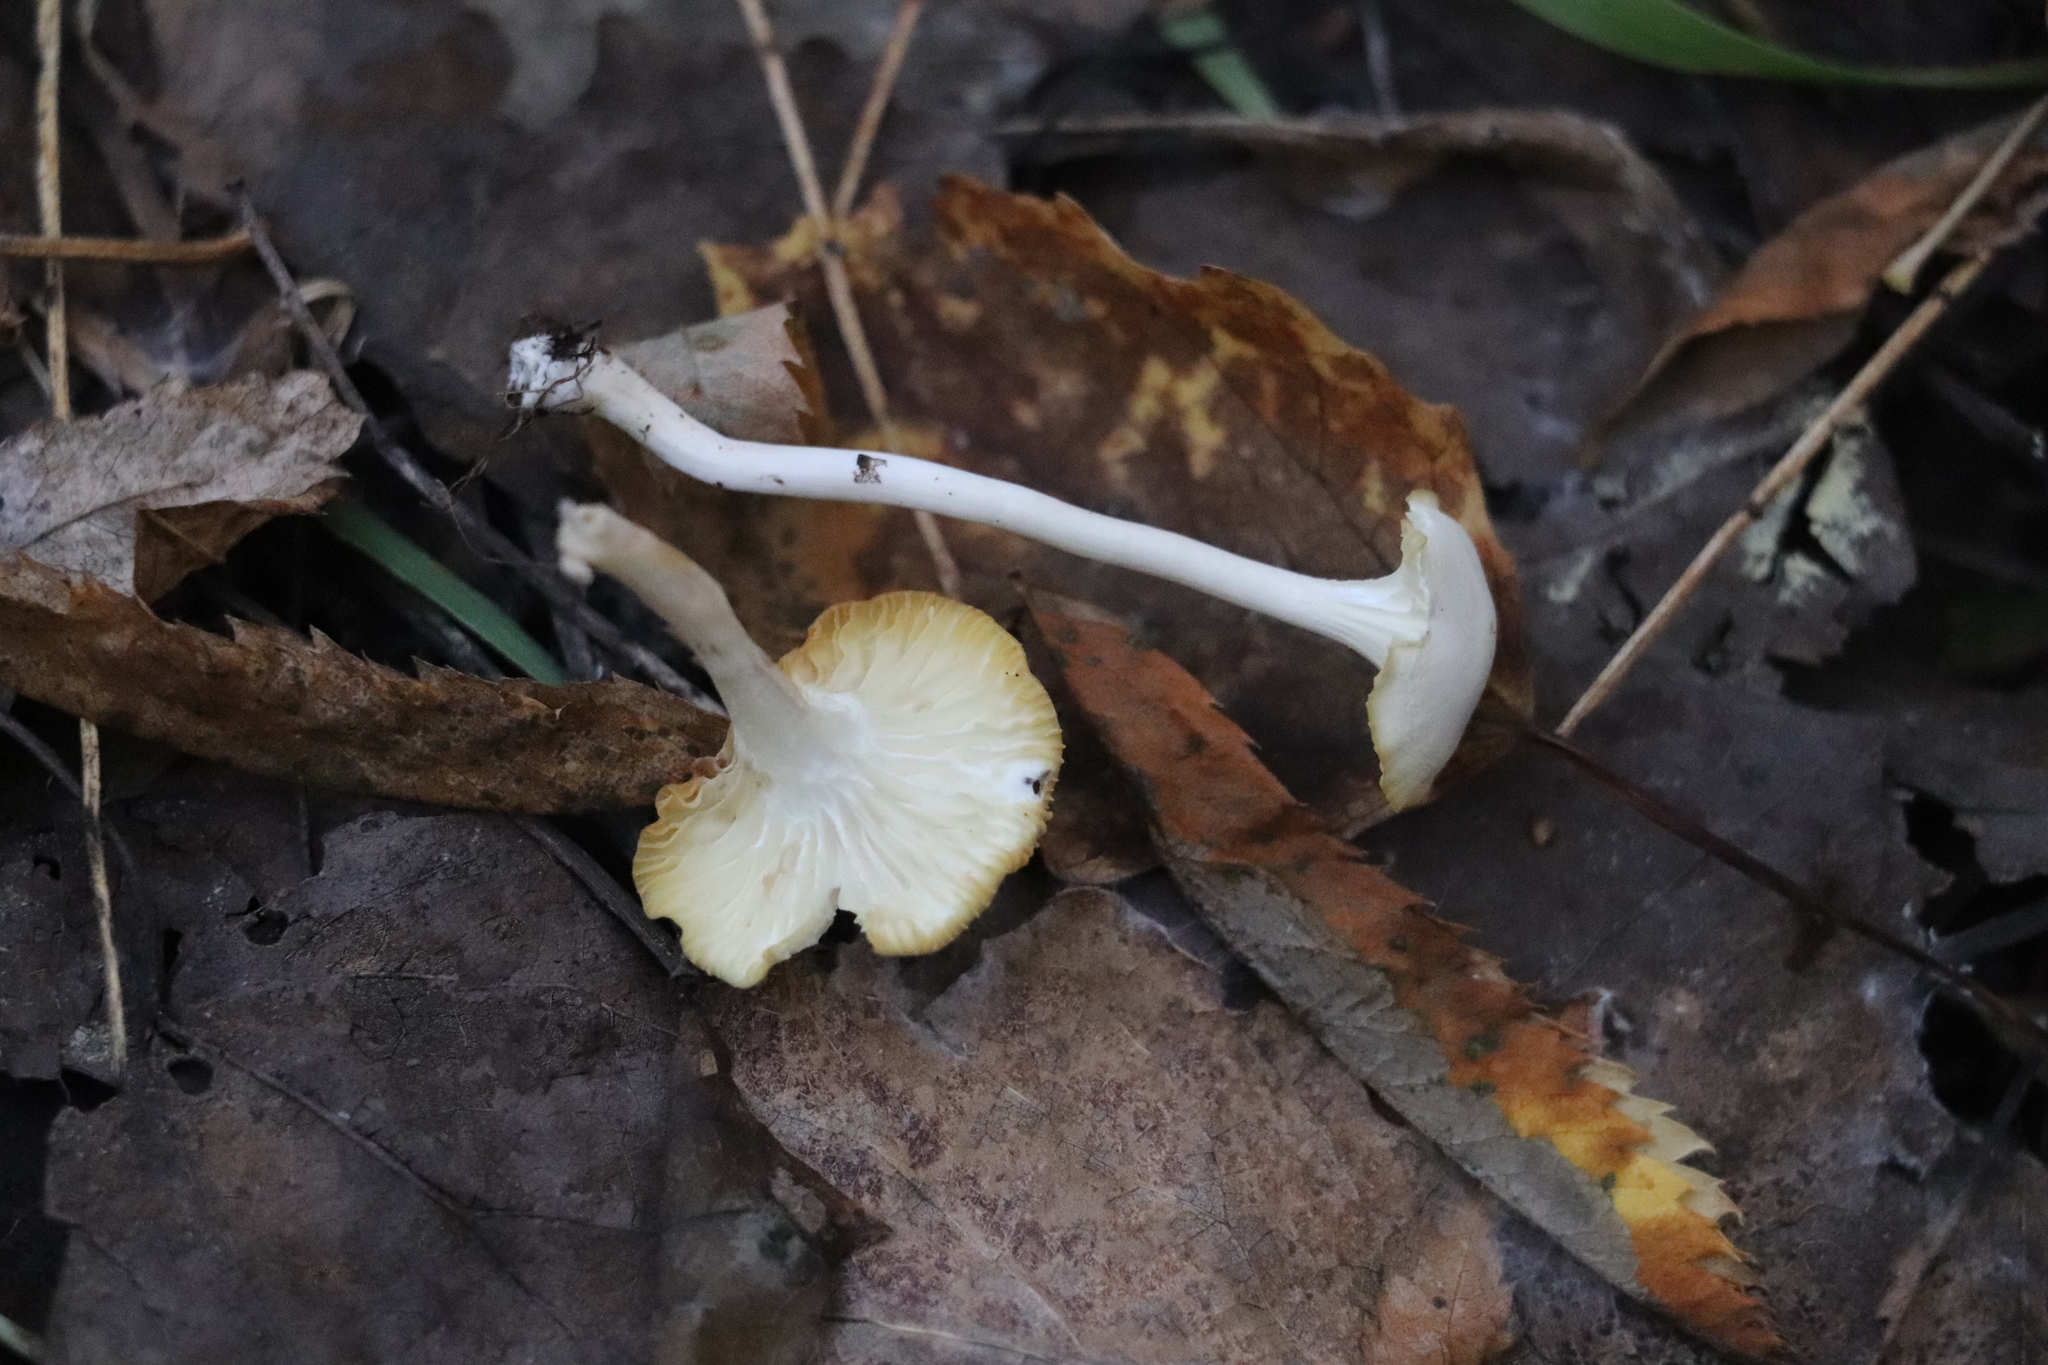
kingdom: Fungi
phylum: Basidiomycota
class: Agaricomycetes
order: Agaricales
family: Hygrophoraceae
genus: Cuphophyllus
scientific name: Cuphophyllus virgineus
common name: Snowy waxcap
